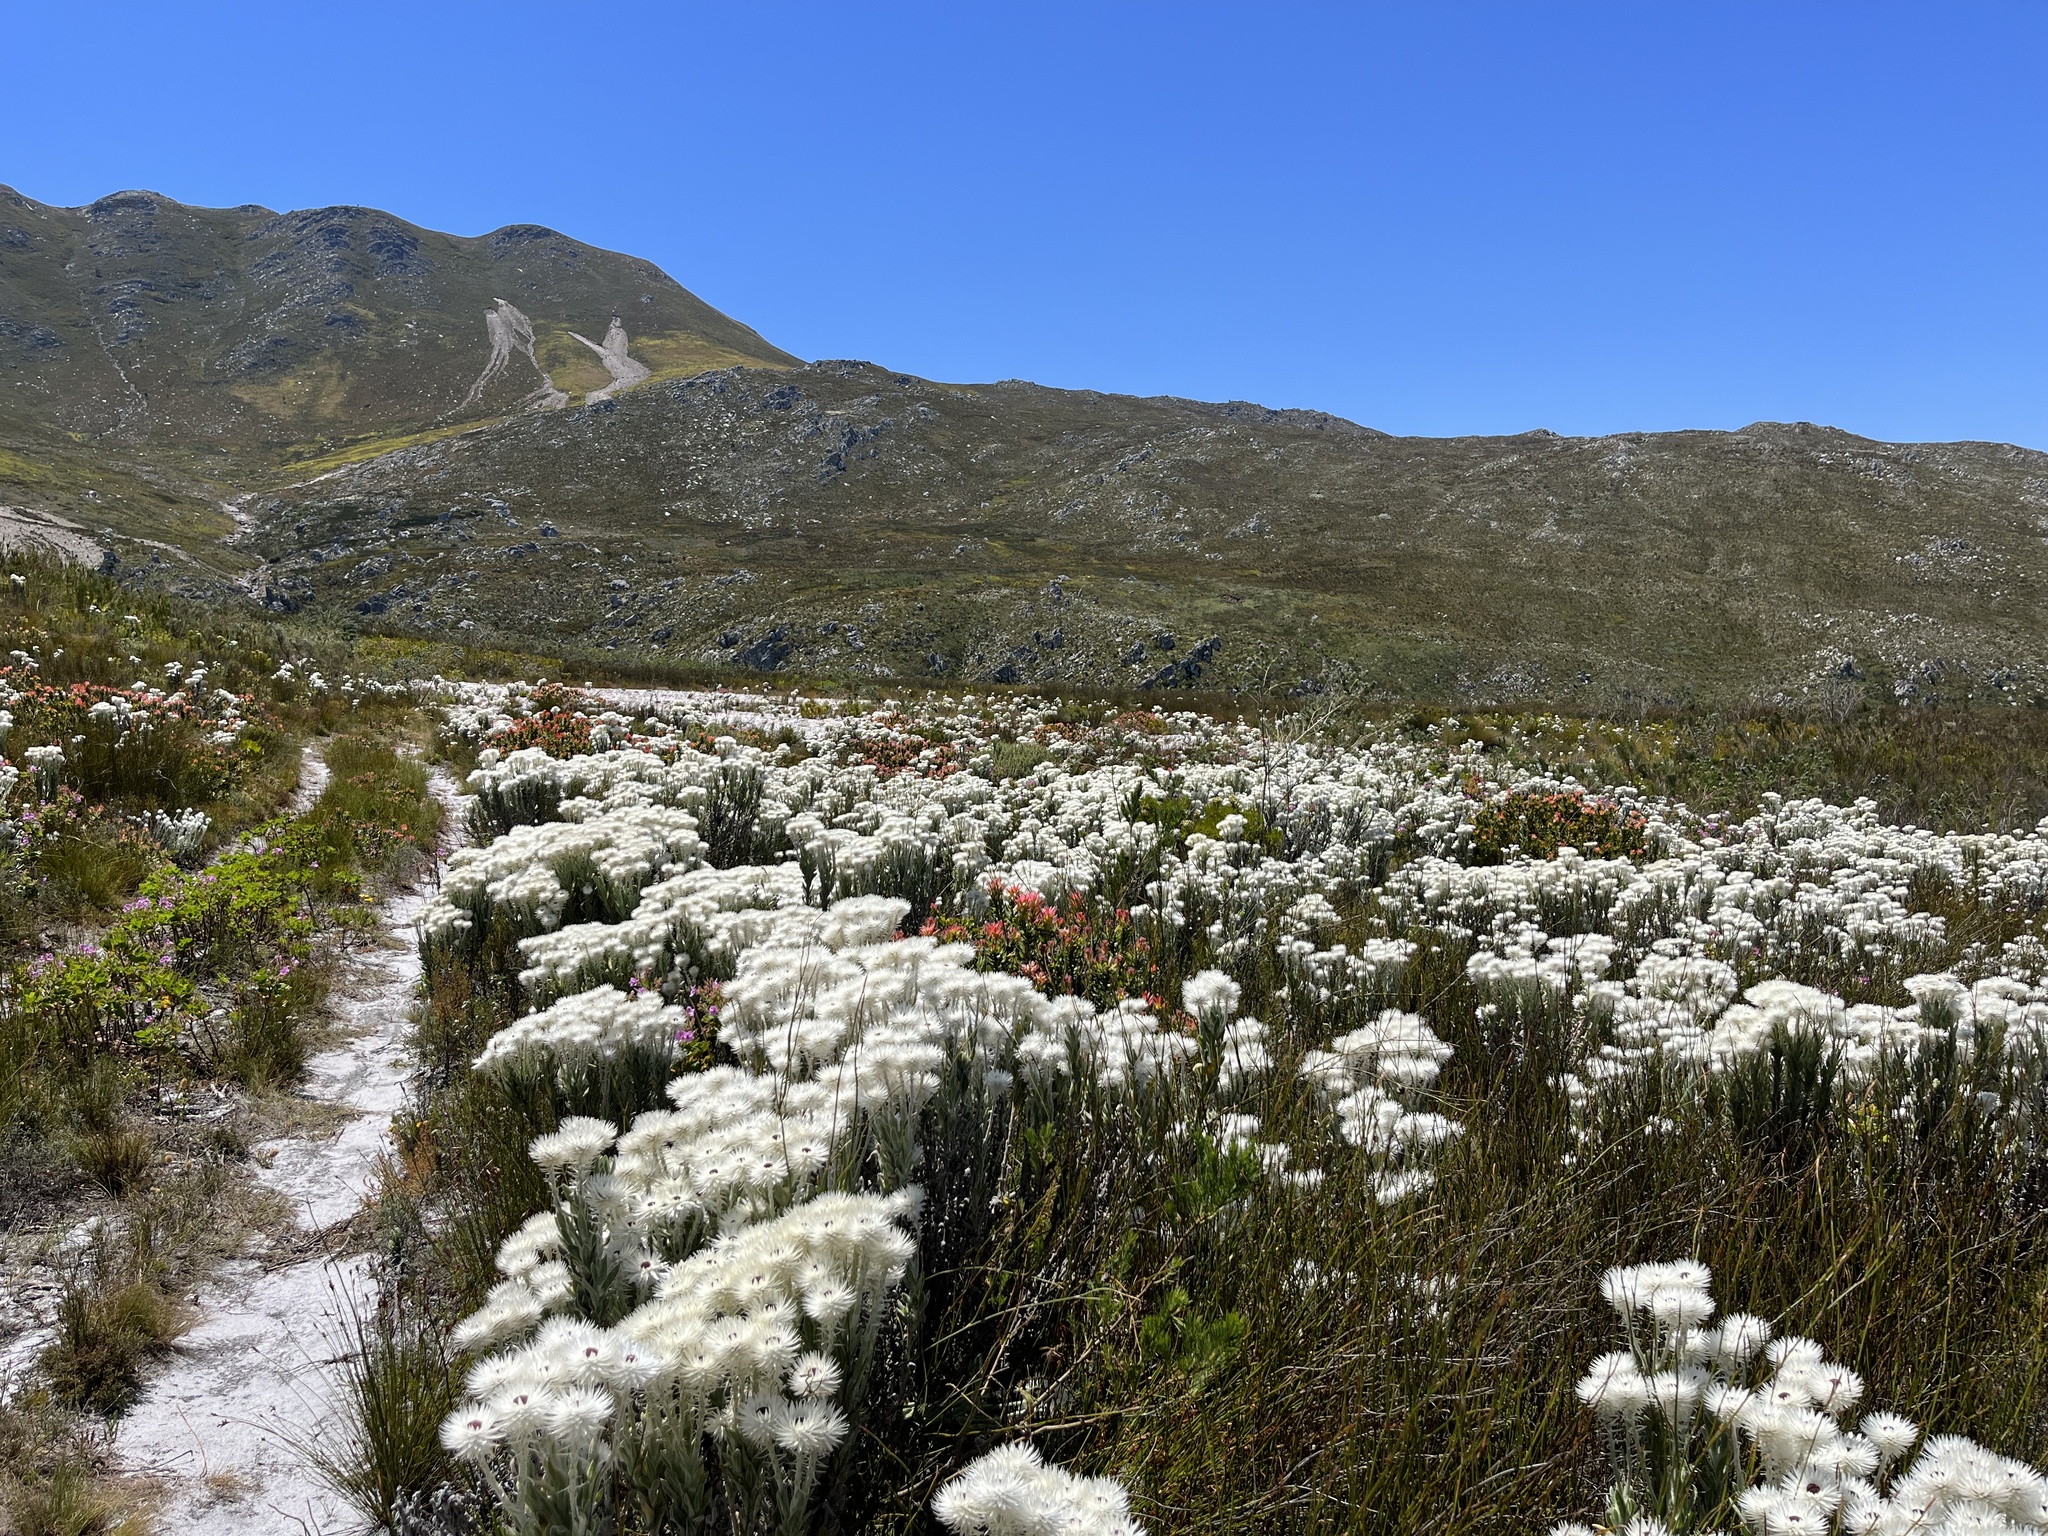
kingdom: Plantae
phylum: Tracheophyta
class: Magnoliopsida
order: Asterales
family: Asteraceae
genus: Syncarpha
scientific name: Syncarpha vestita
